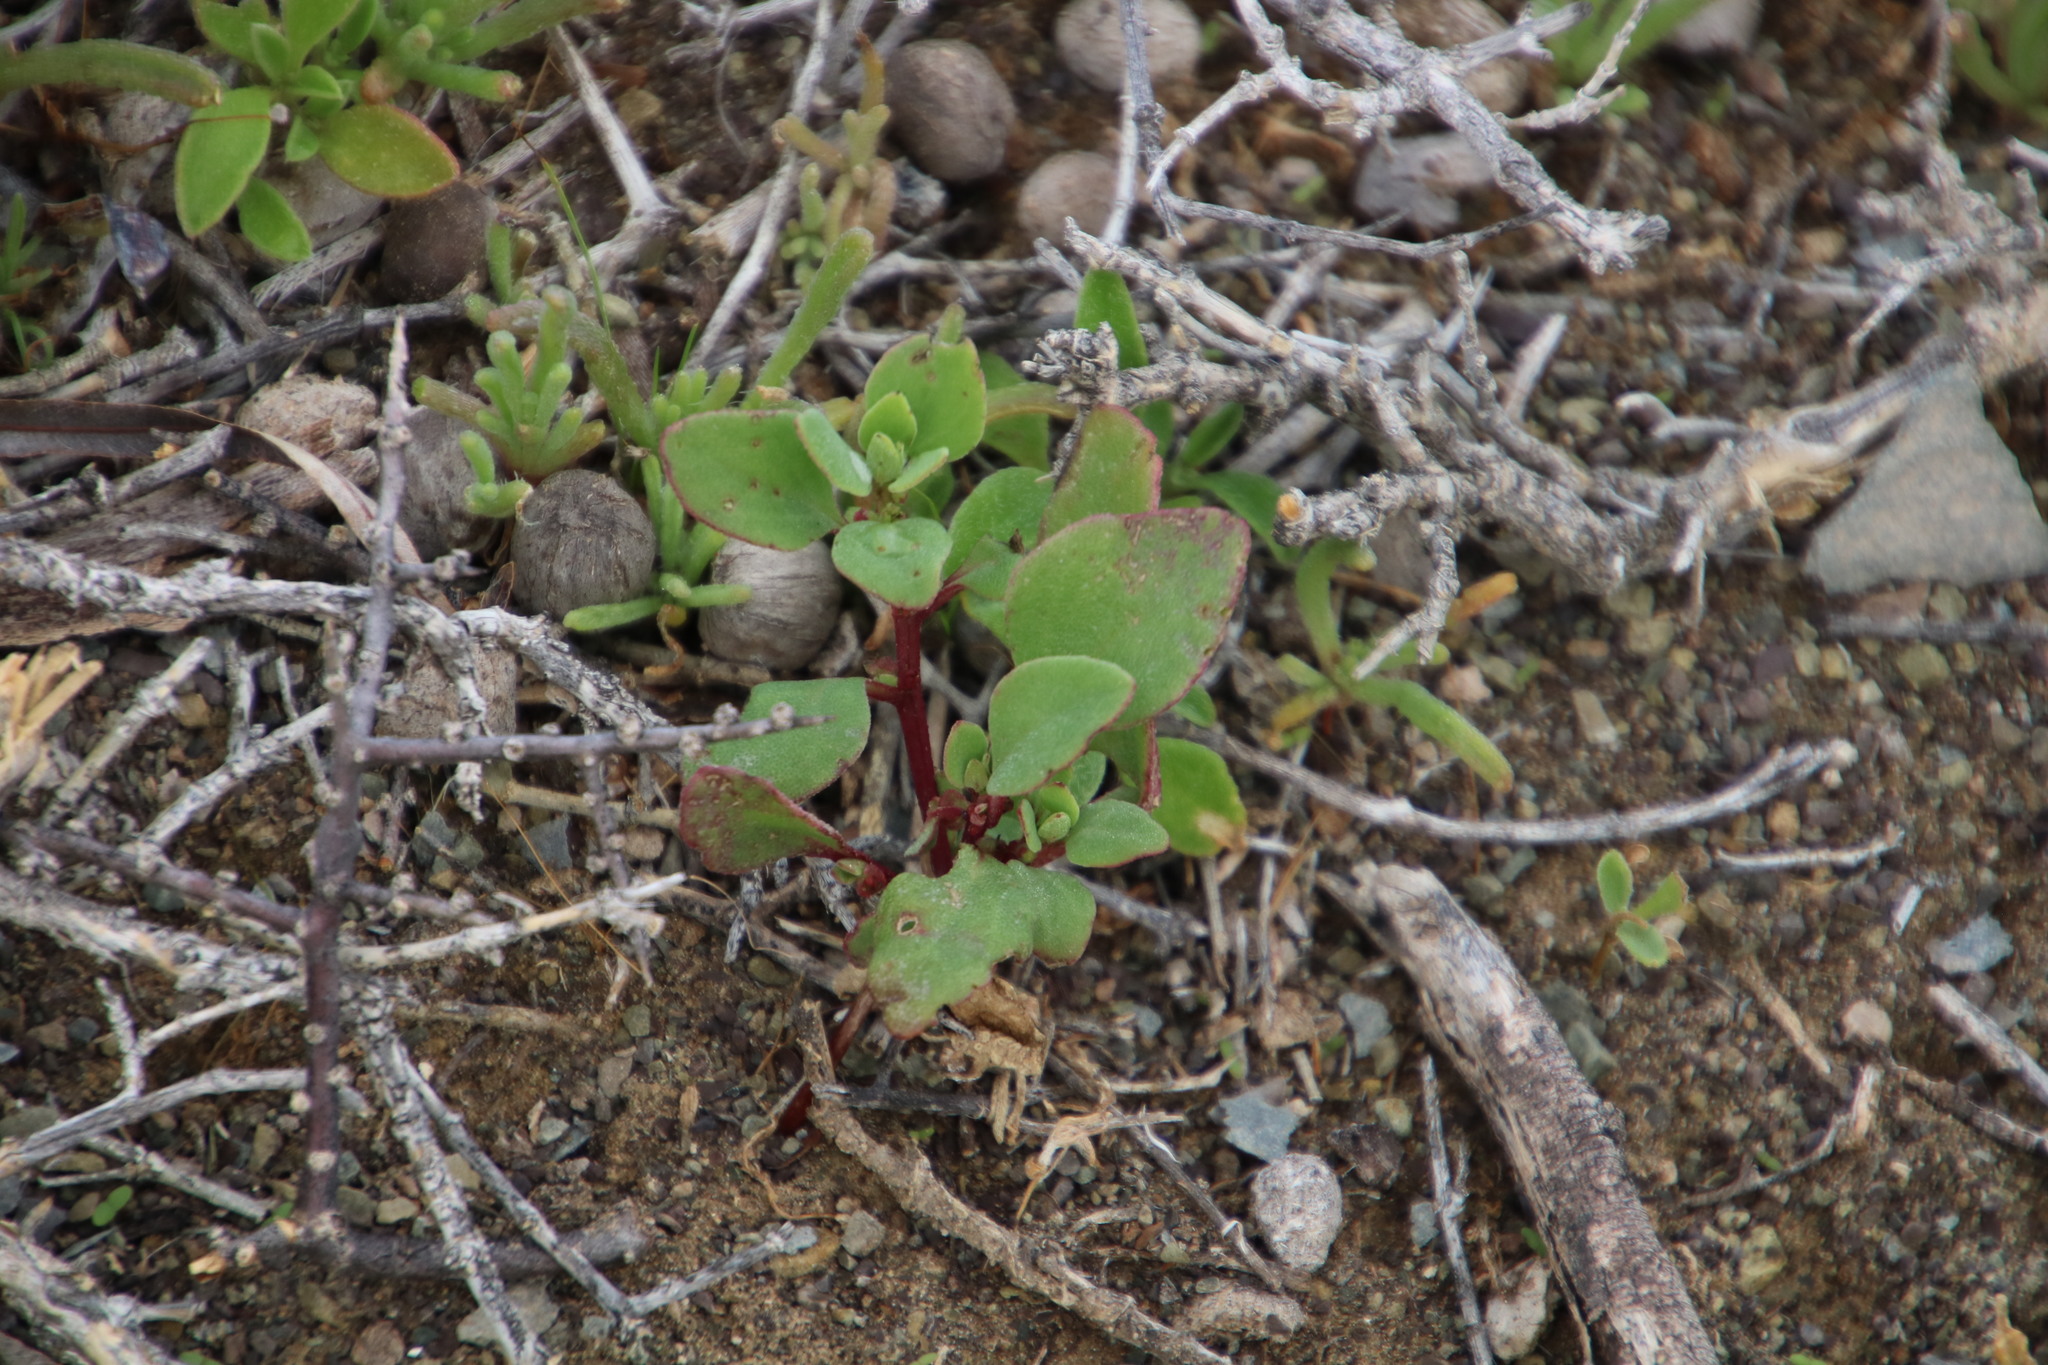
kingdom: Plantae
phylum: Tracheophyta
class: Magnoliopsida
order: Caryophyllales
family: Aizoaceae
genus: Tetragonia
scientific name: Tetragonia microptera
